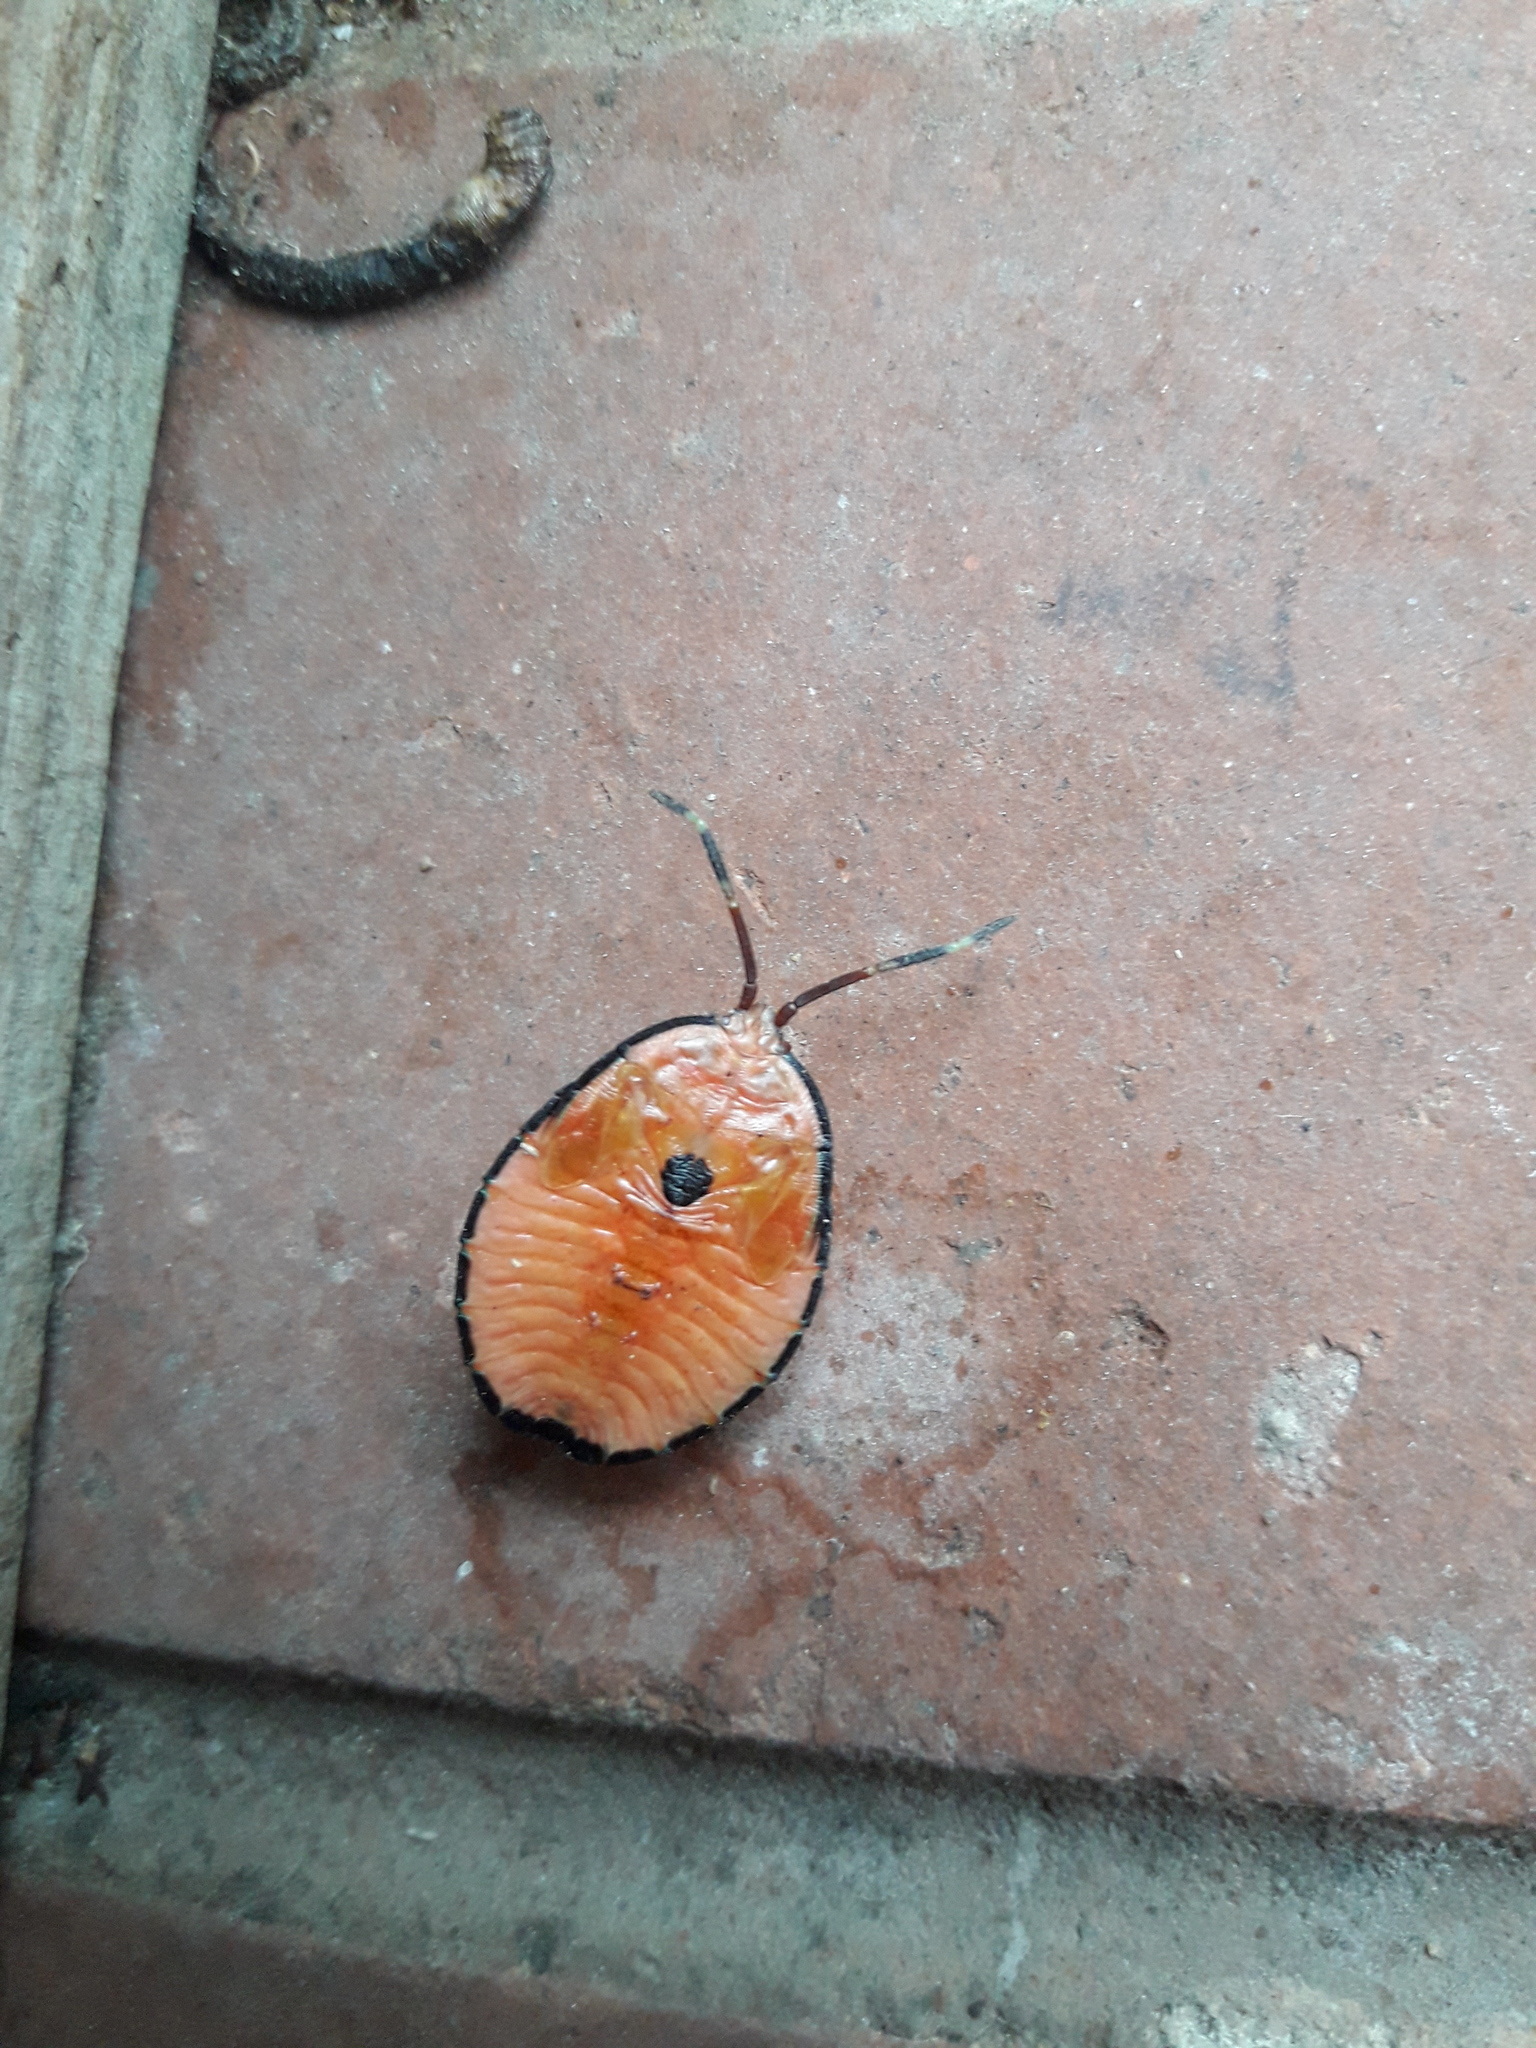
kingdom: Animalia
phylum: Arthropoda
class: Insecta
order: Hemiptera
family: Tessaratomidae
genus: Musgraveia
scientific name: Musgraveia sulciventris
